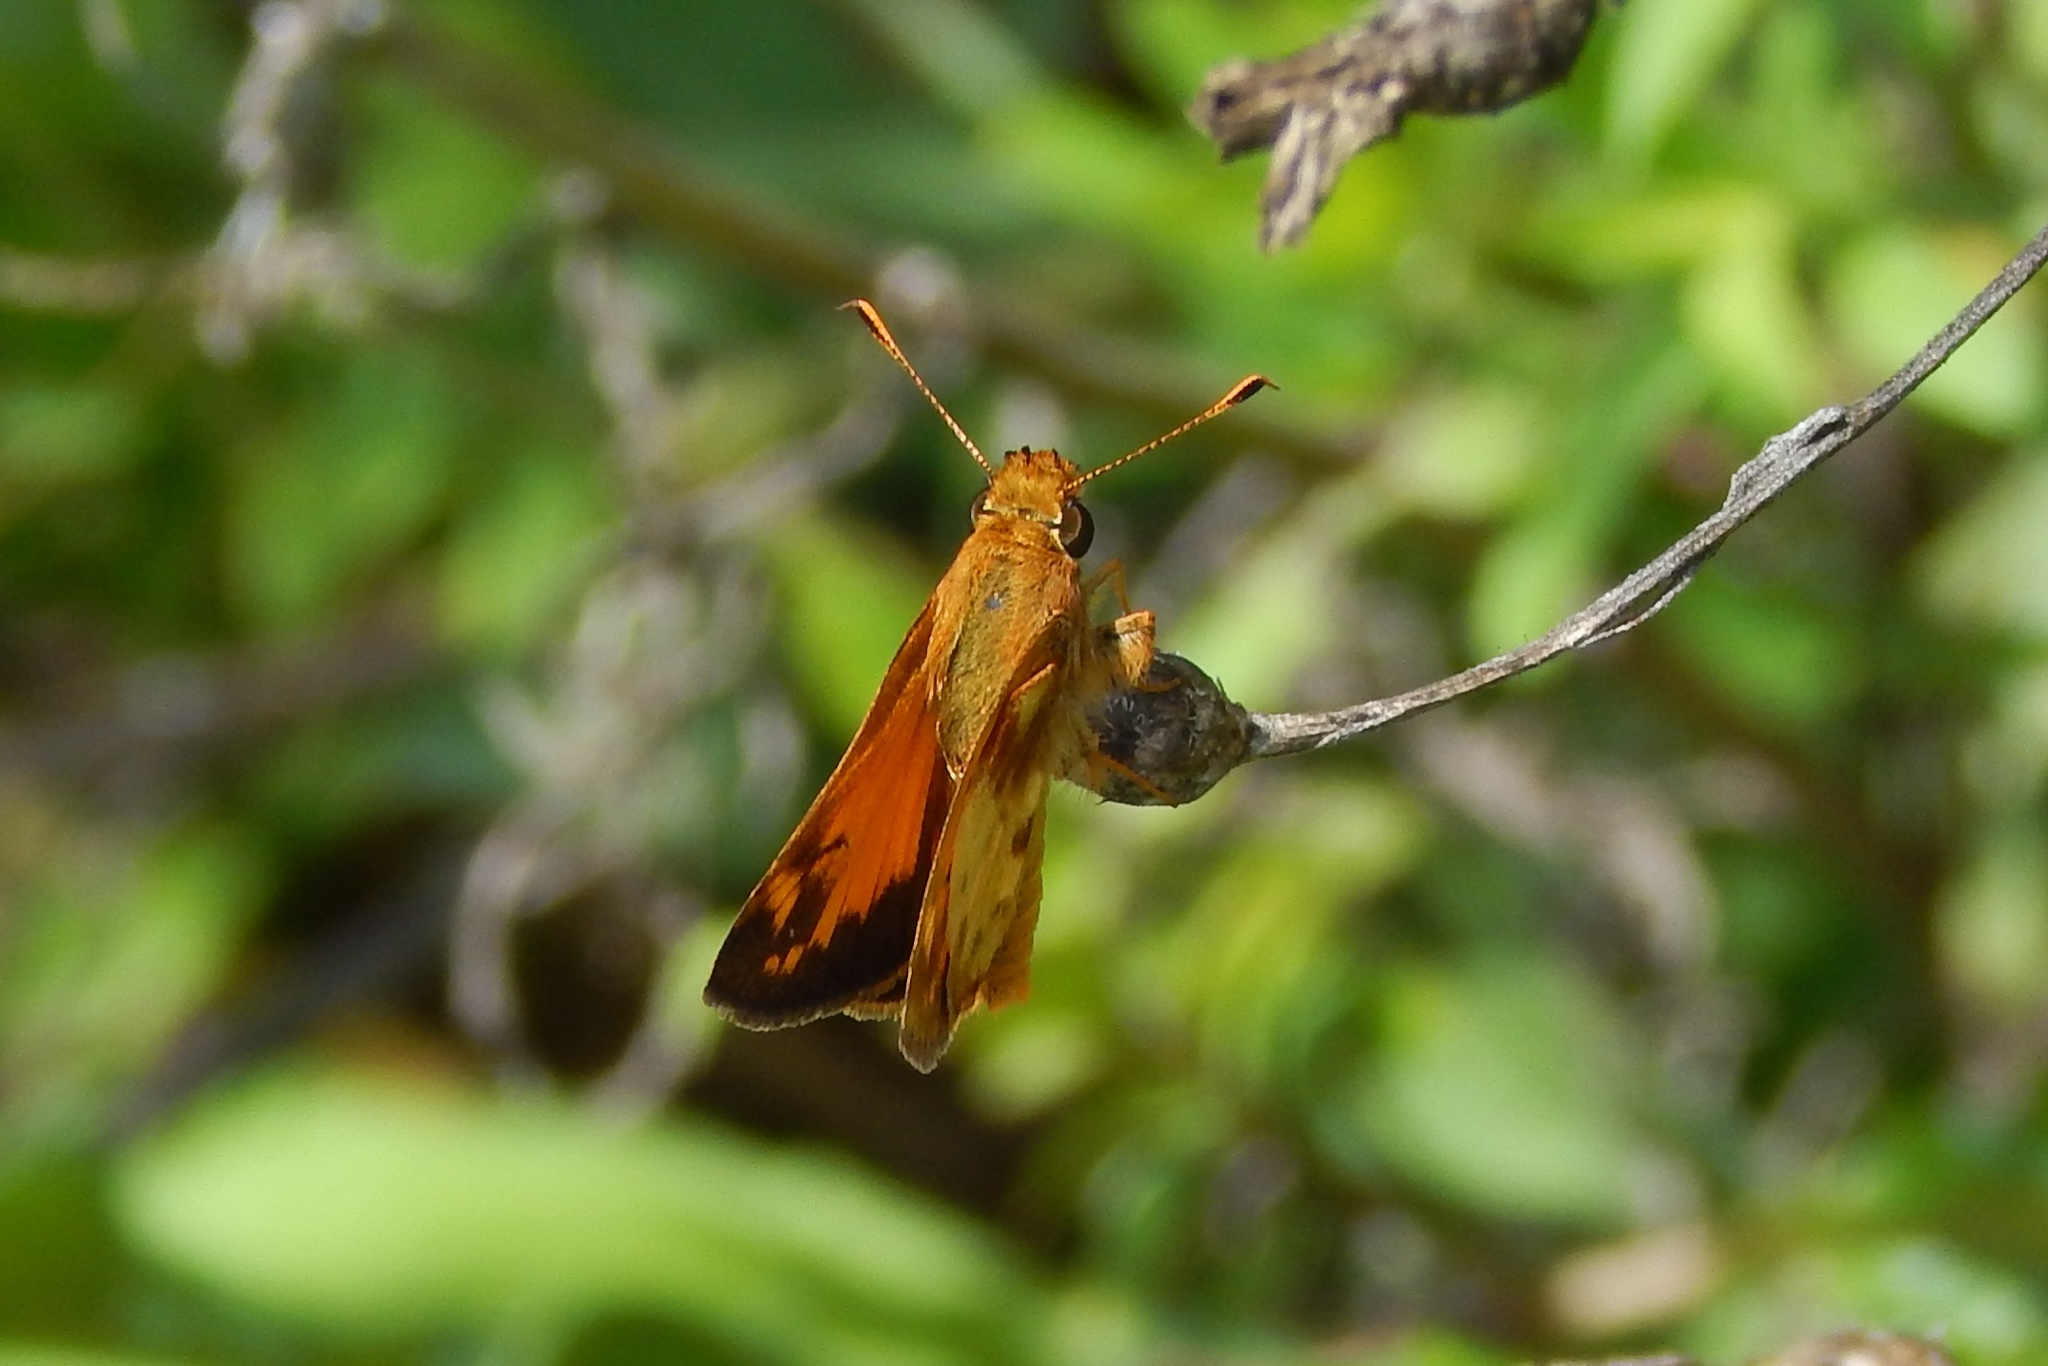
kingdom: Animalia
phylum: Arthropoda
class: Insecta
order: Lepidoptera
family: Hesperiidae
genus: Lon
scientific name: Lon zabulon
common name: Zabulon skipper
